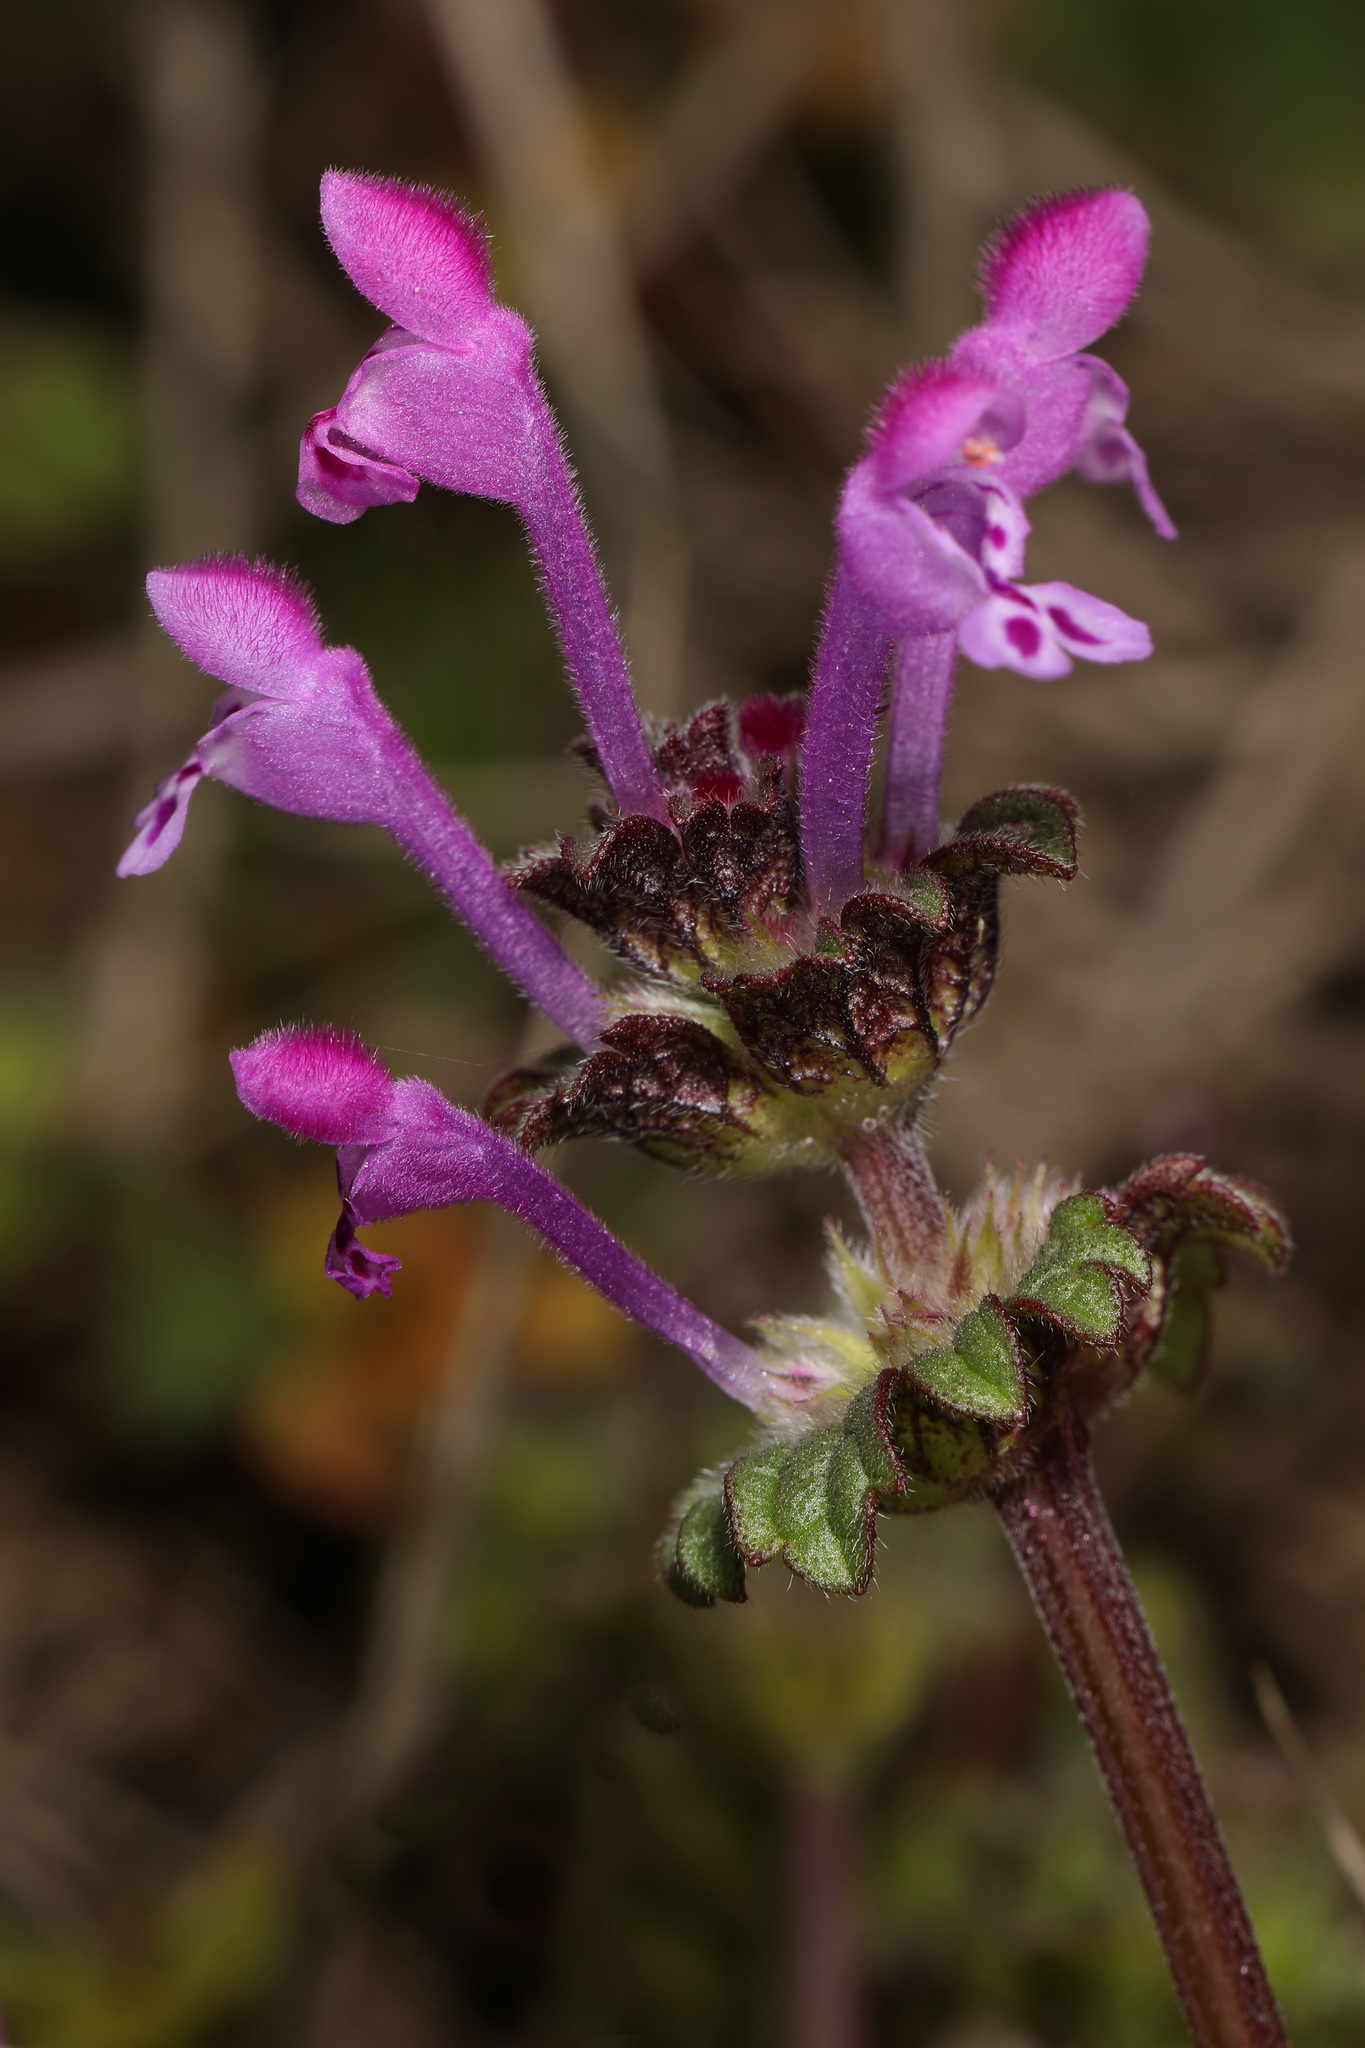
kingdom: Plantae
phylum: Tracheophyta
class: Magnoliopsida
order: Lamiales
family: Lamiaceae
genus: Lamium
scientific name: Lamium amplexicaule
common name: Henbit dead-nettle
